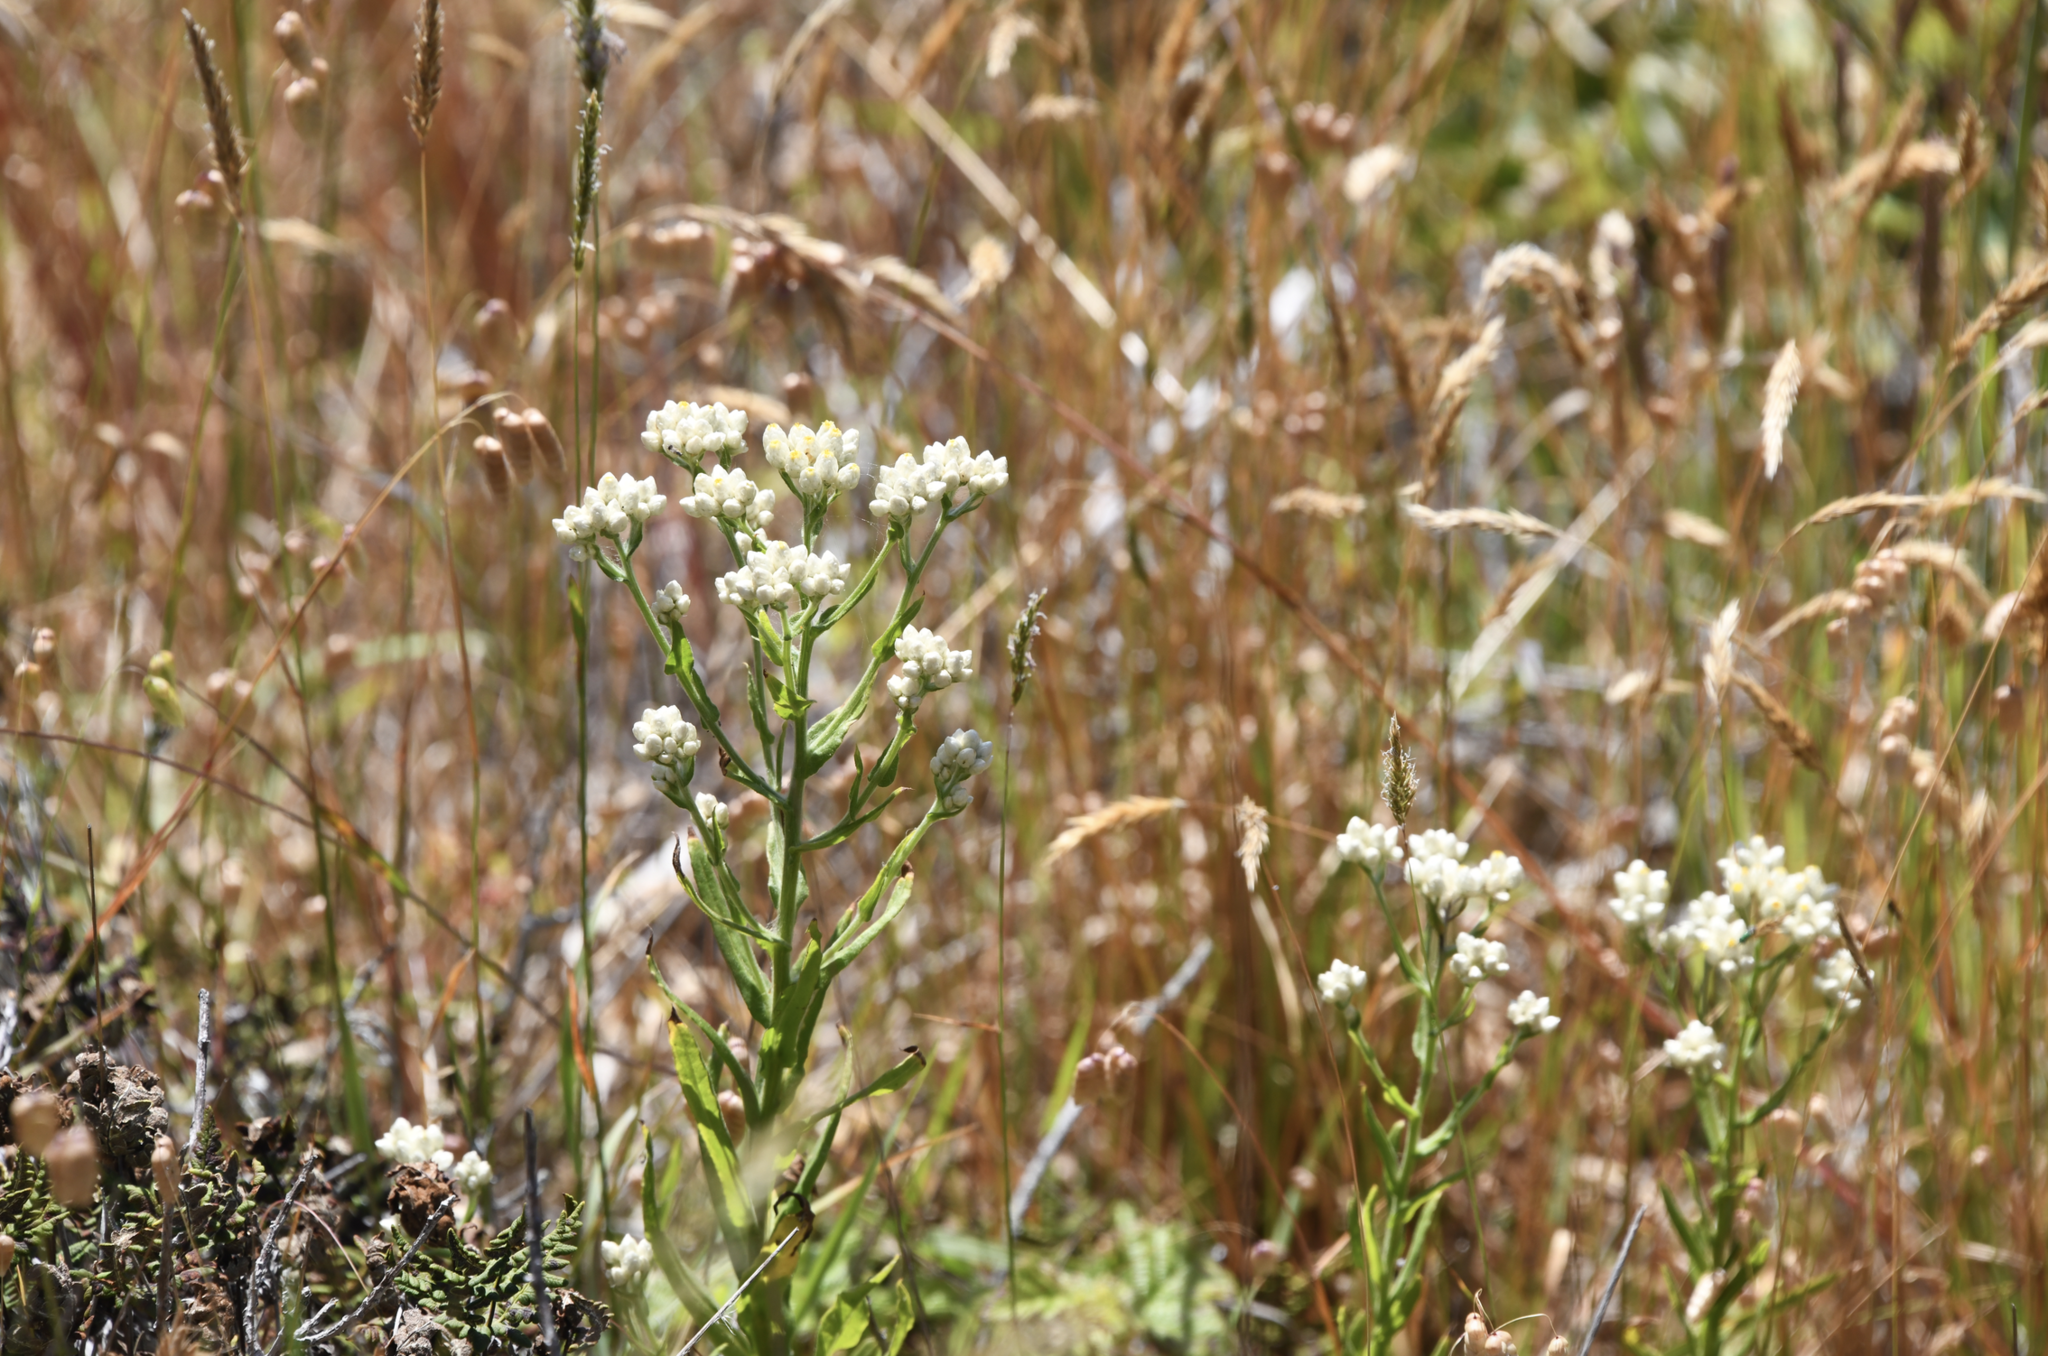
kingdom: Plantae
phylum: Tracheophyta
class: Magnoliopsida
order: Asterales
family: Asteraceae
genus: Anaphalis
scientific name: Anaphalis margaritacea
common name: Pearly everlasting
